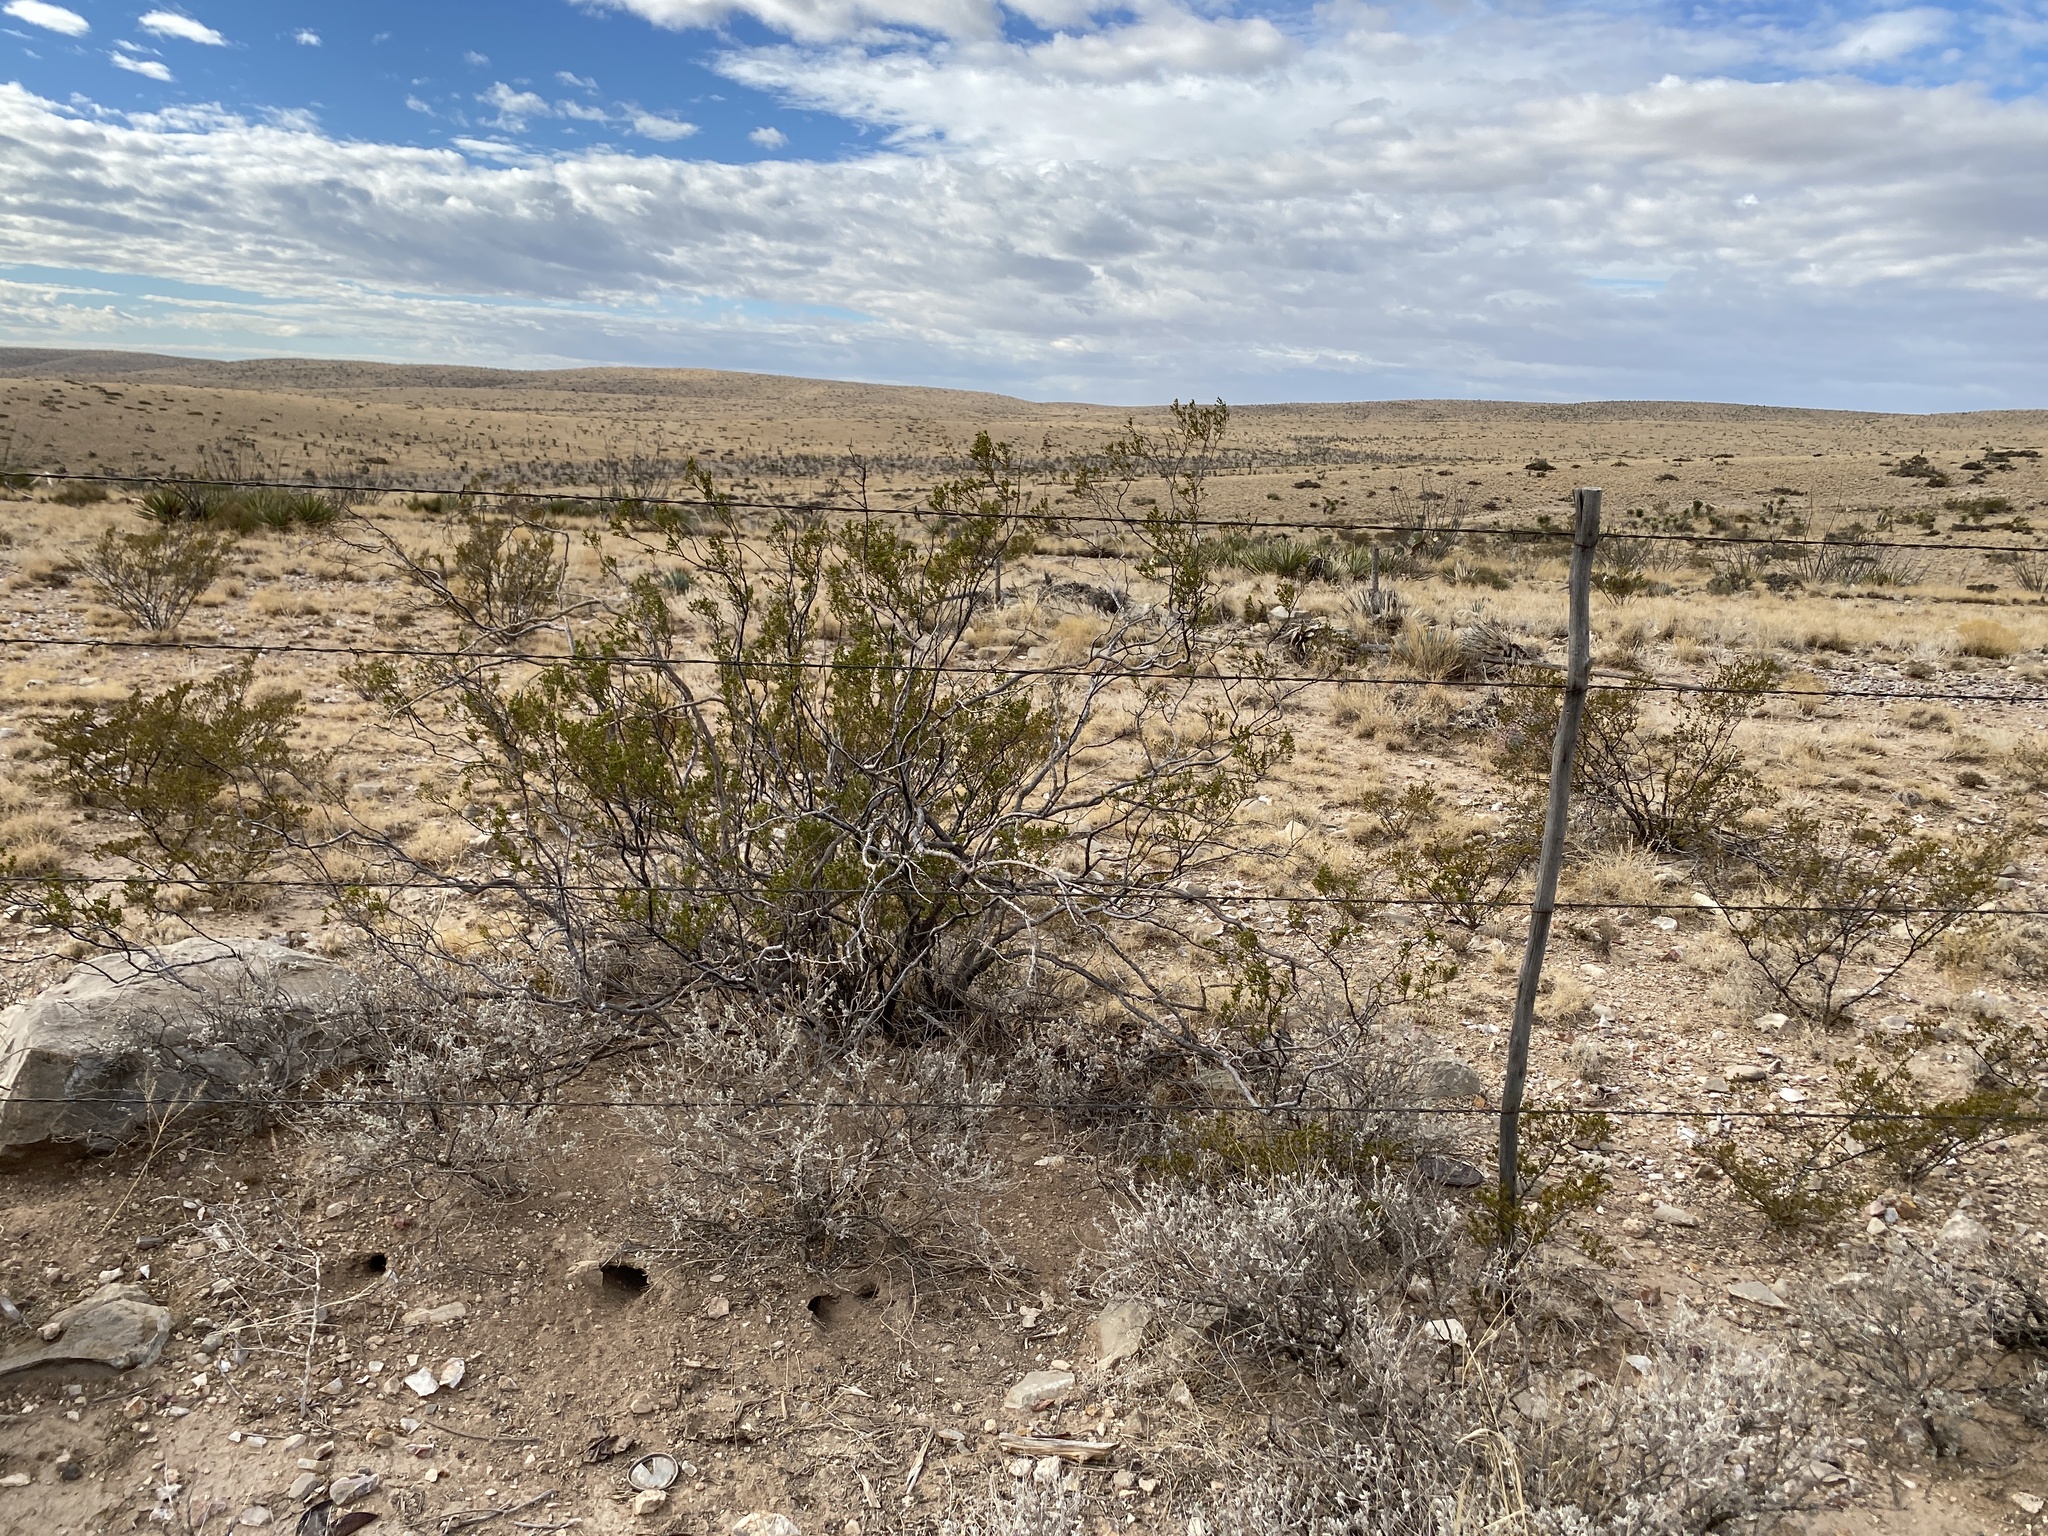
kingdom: Plantae
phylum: Tracheophyta
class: Magnoliopsida
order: Zygophyllales
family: Zygophyllaceae
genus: Larrea
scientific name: Larrea tridentata
